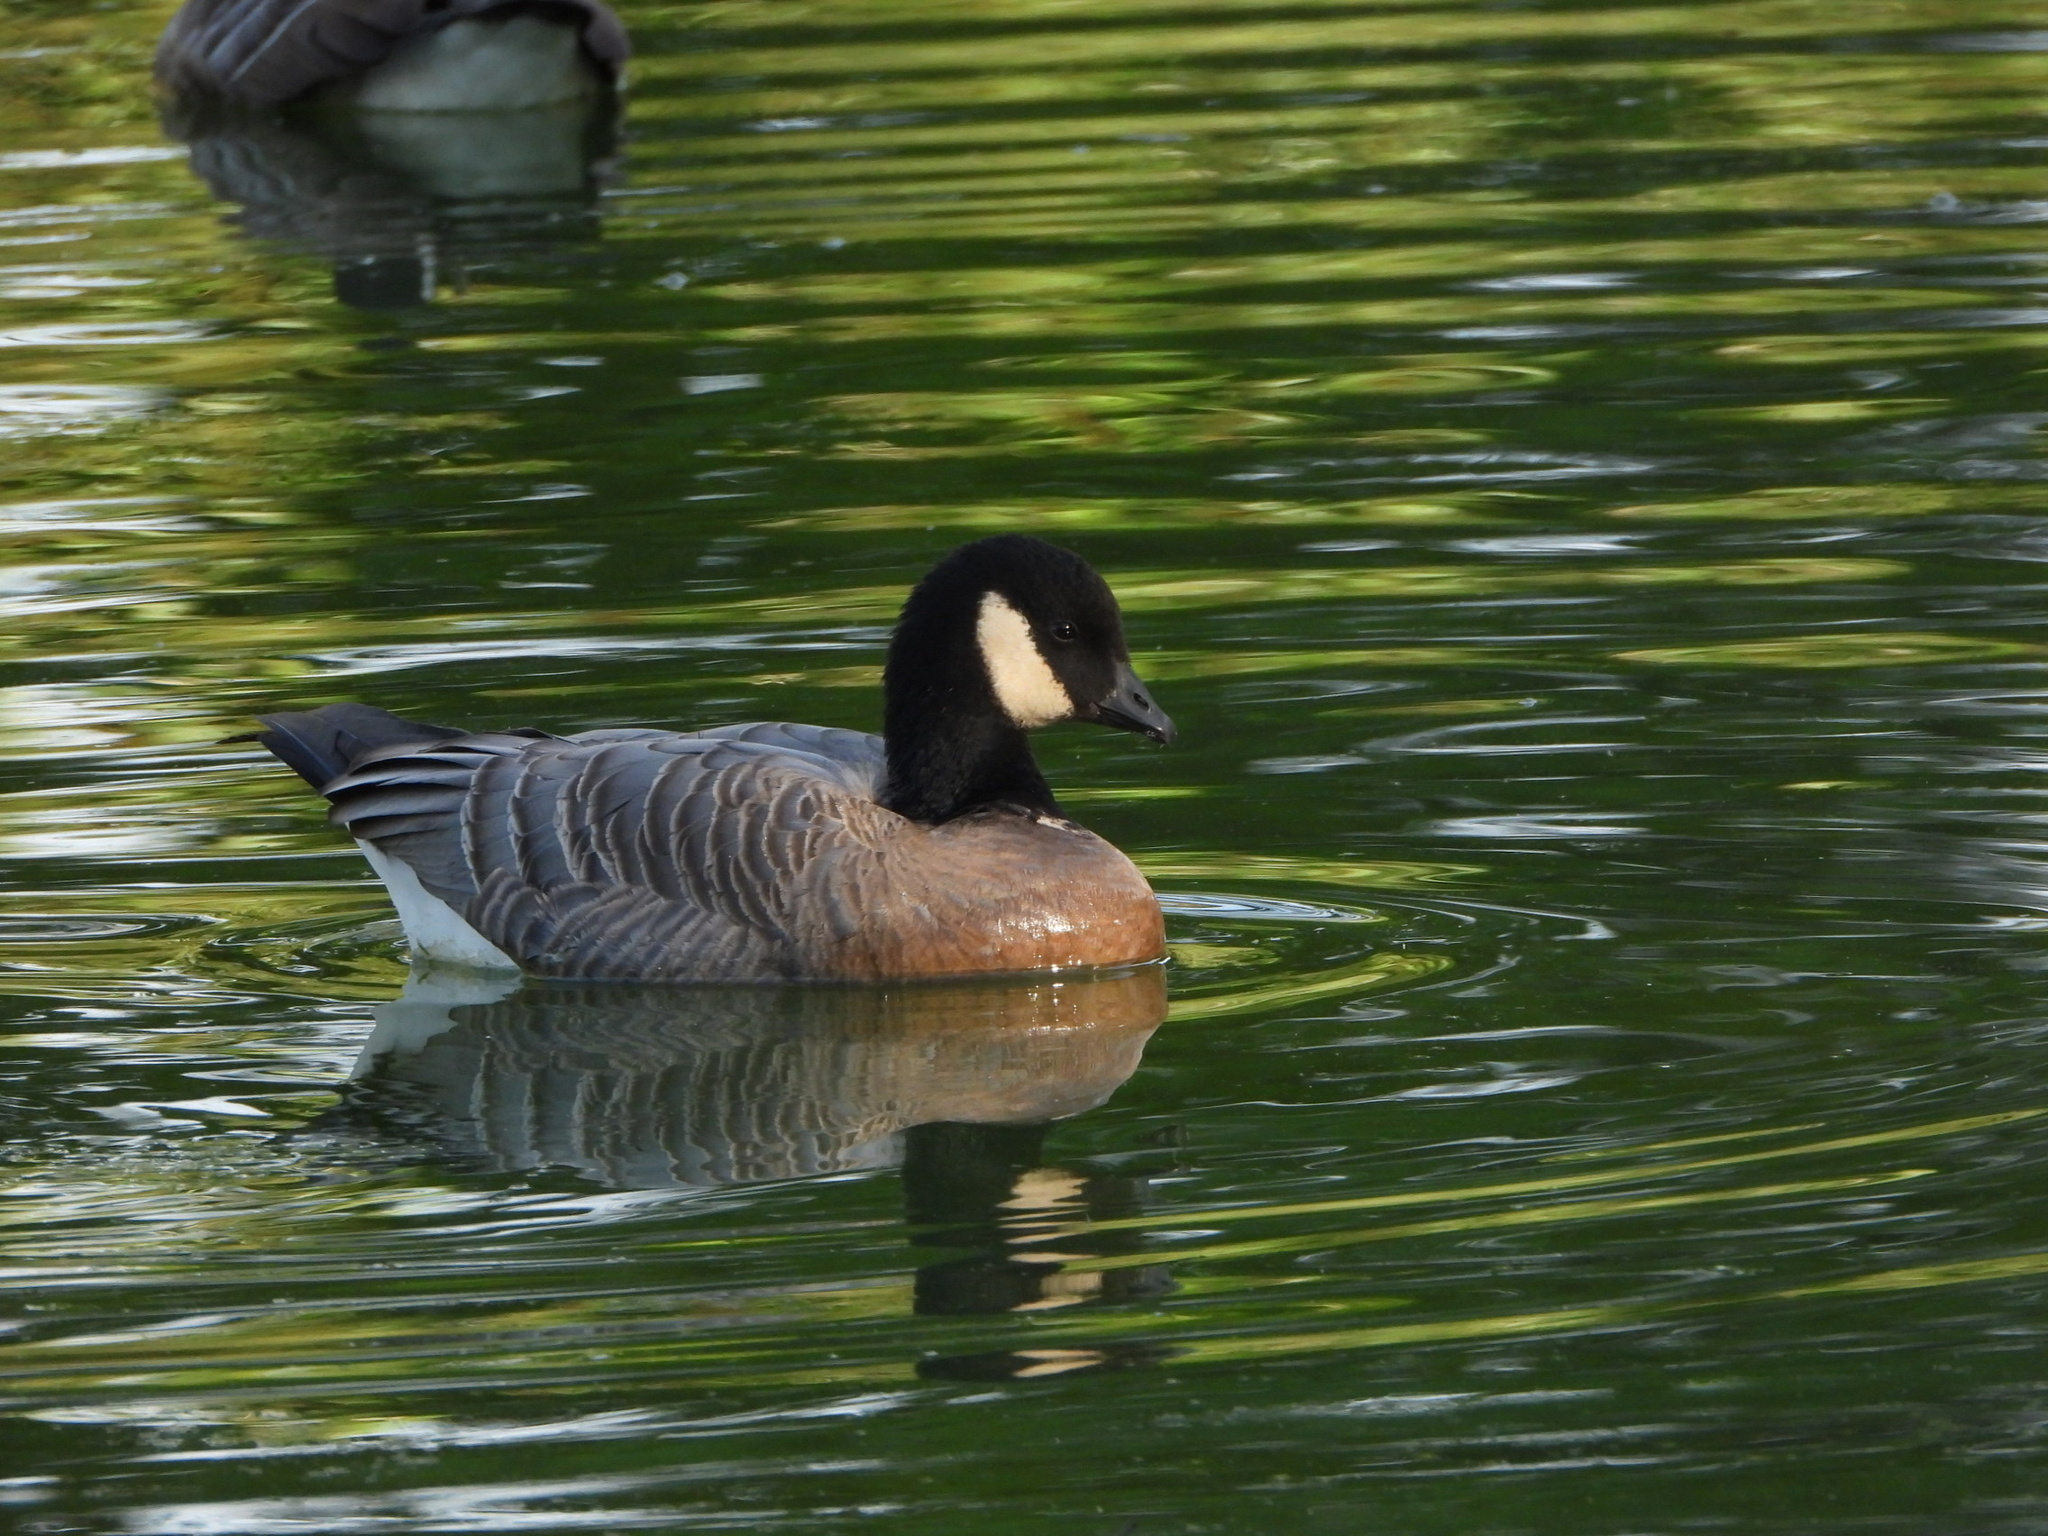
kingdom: Animalia
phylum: Chordata
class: Aves
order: Anseriformes
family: Anatidae
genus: Branta
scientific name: Branta hutchinsii
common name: Cackling goose
